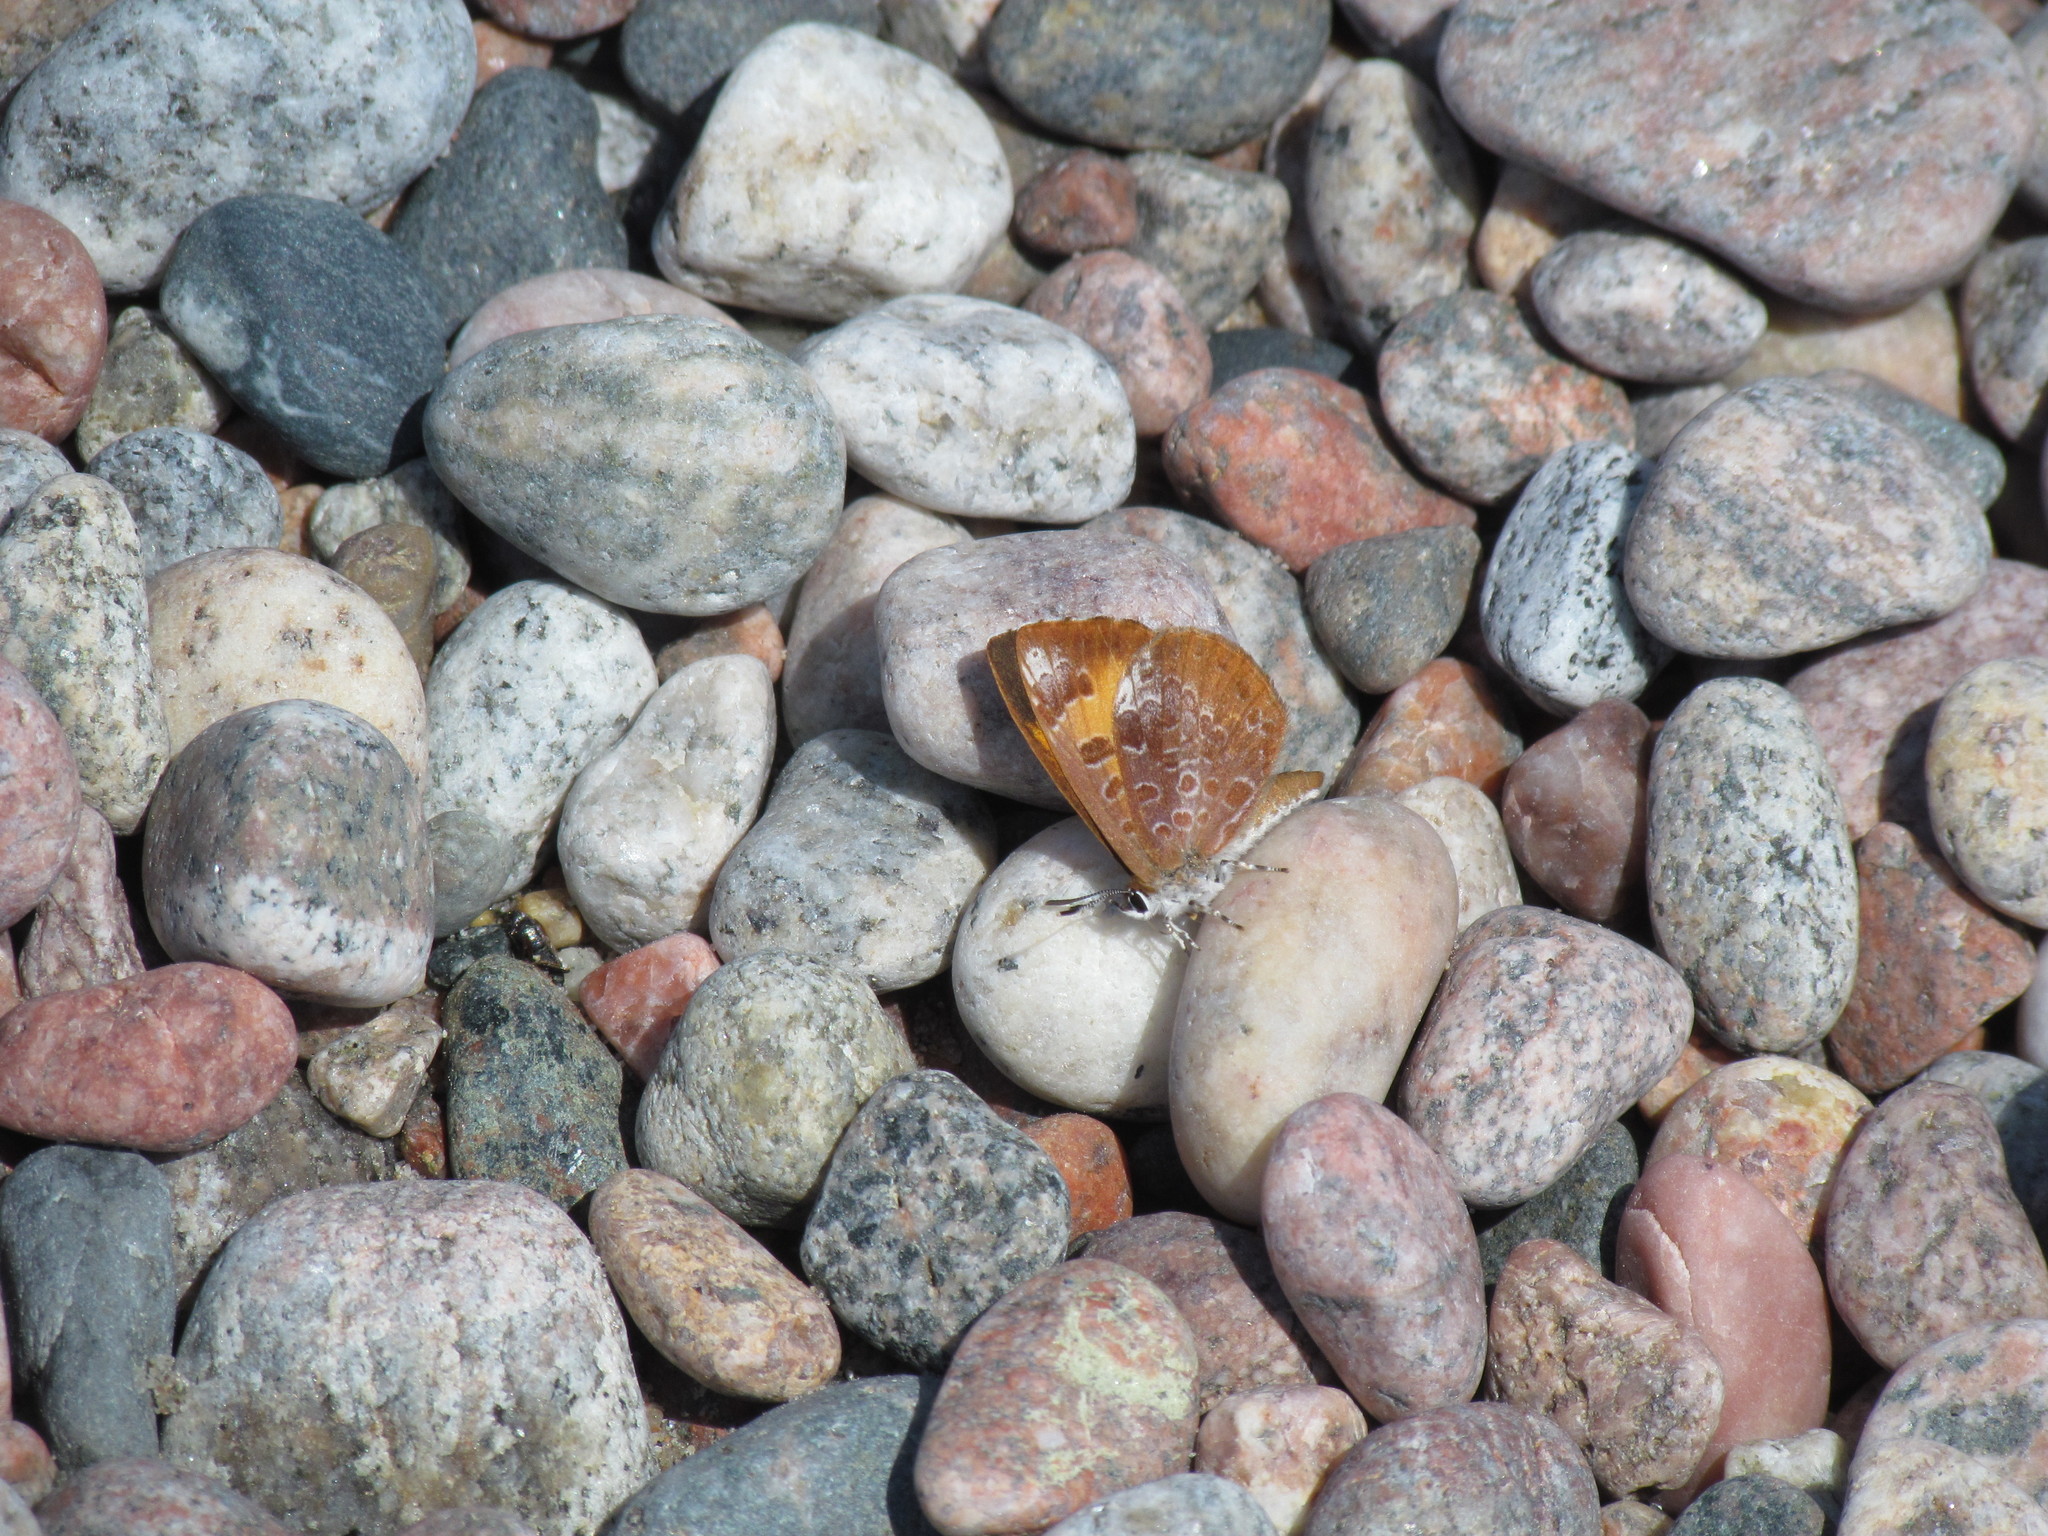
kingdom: Animalia
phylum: Arthropoda
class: Insecta
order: Lepidoptera
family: Lycaenidae
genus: Feniseca
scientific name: Feniseca tarquinius
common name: Harvester
